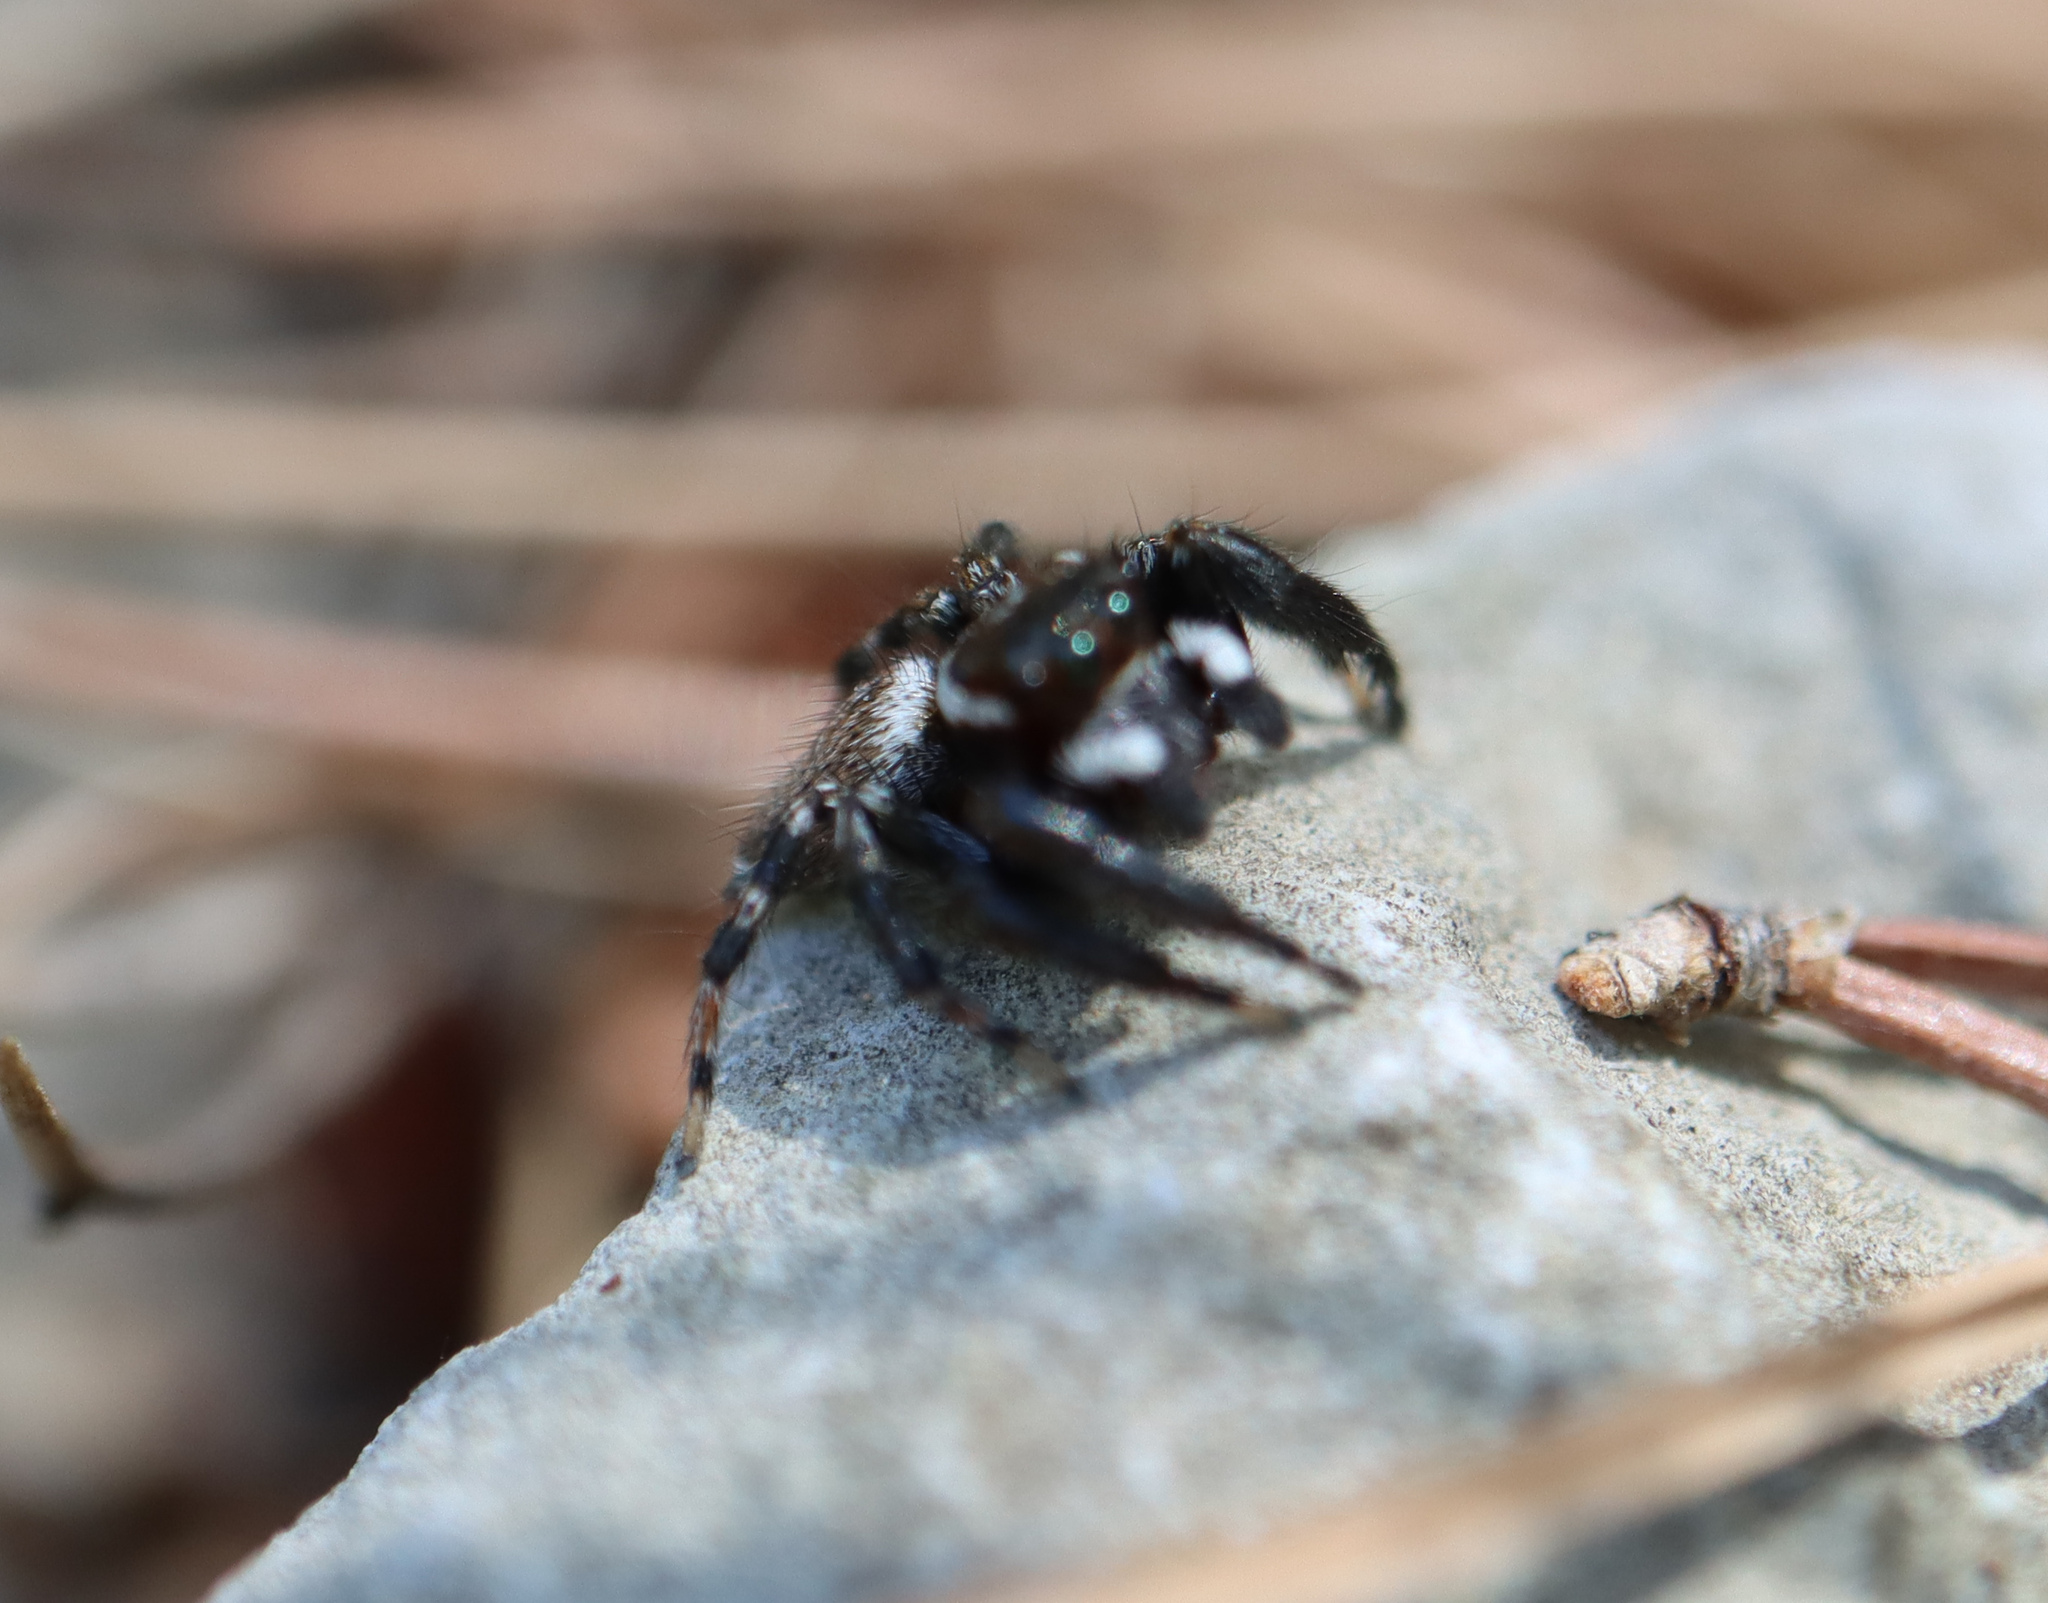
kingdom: Animalia
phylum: Arthropoda
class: Arachnida
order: Araneae
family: Salticidae
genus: Evarcha
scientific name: Evarcha jucunda
